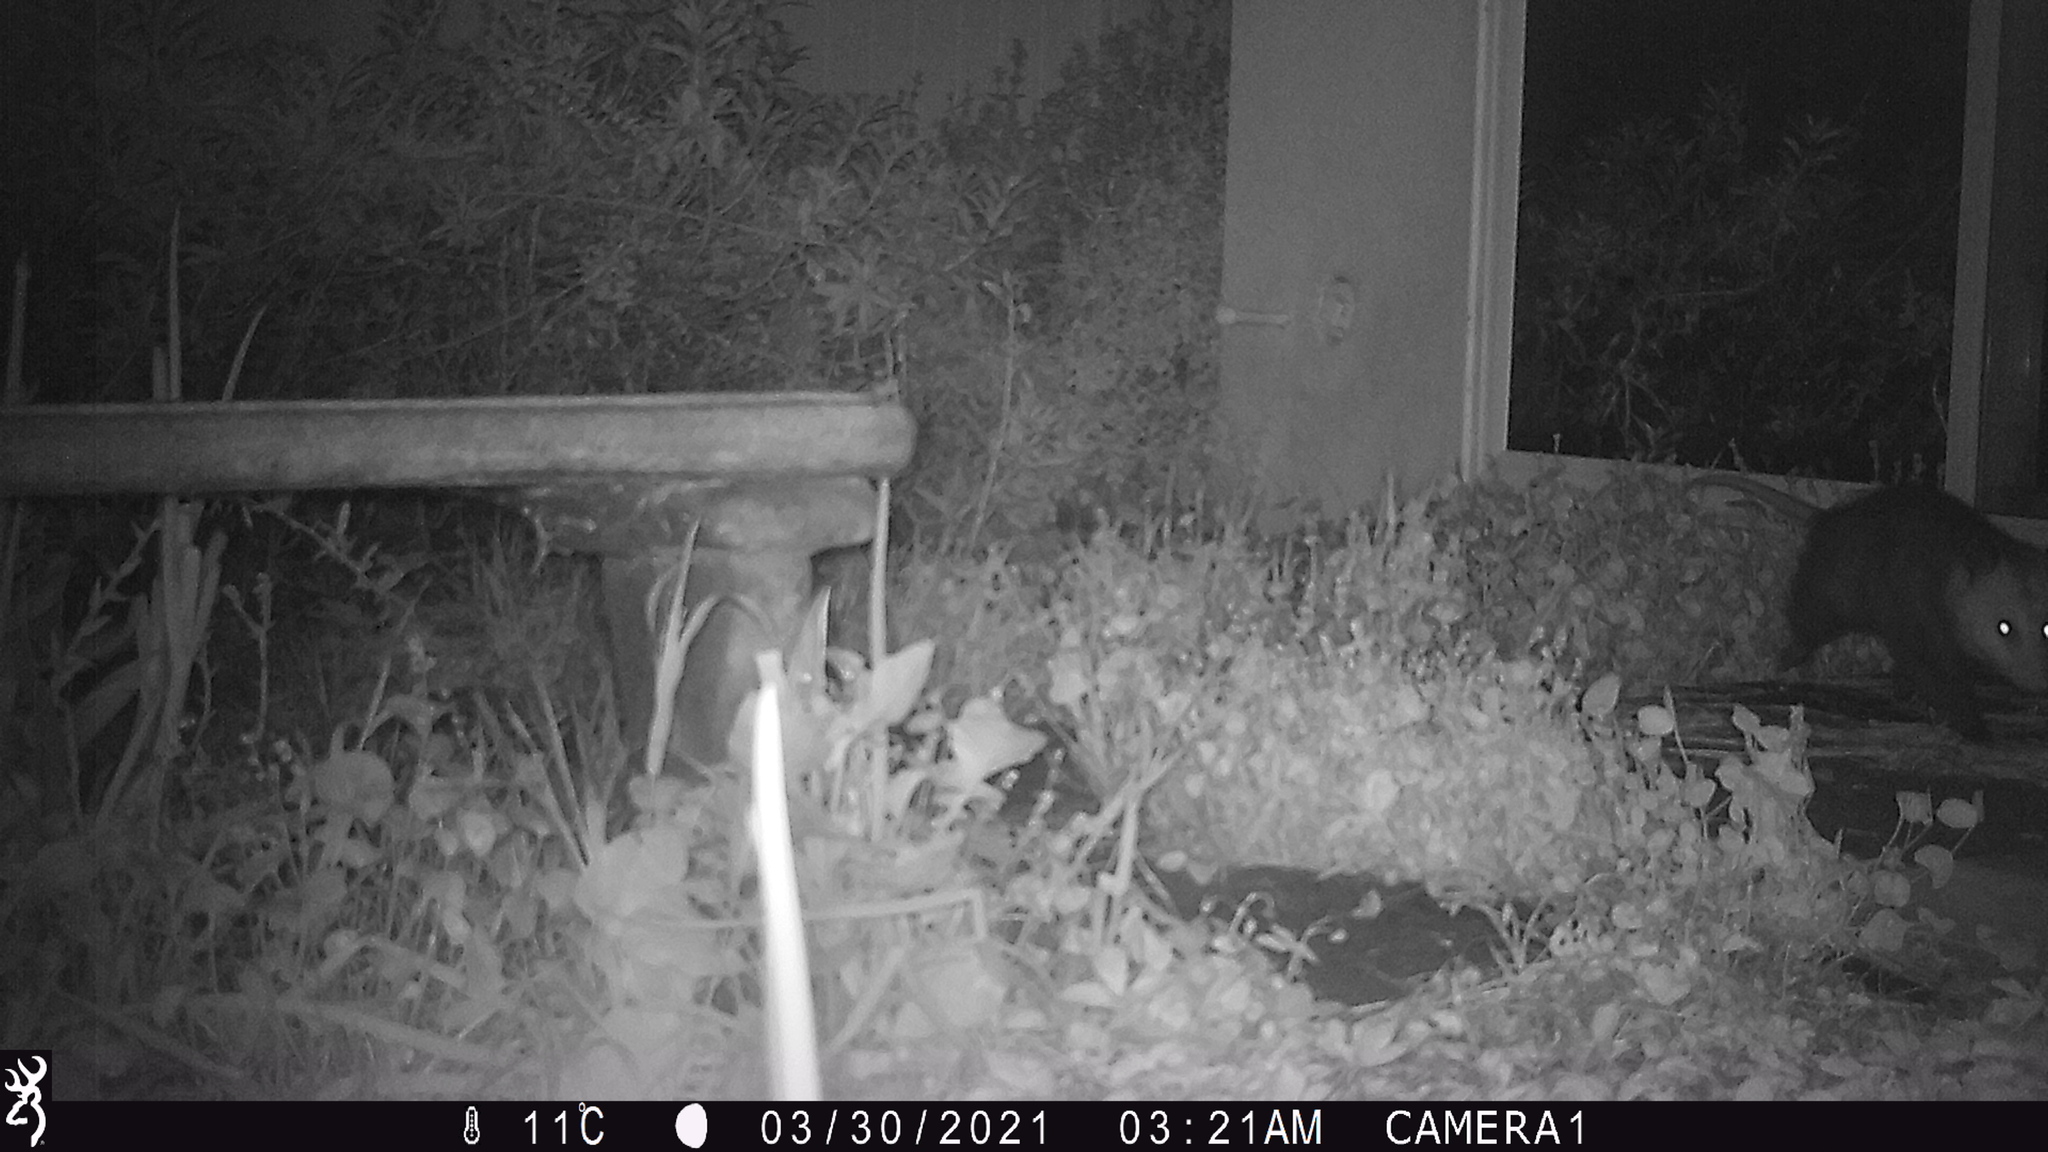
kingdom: Animalia
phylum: Chordata
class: Mammalia
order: Didelphimorphia
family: Didelphidae
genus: Didelphis
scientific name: Didelphis virginiana
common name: Virginia opossum
